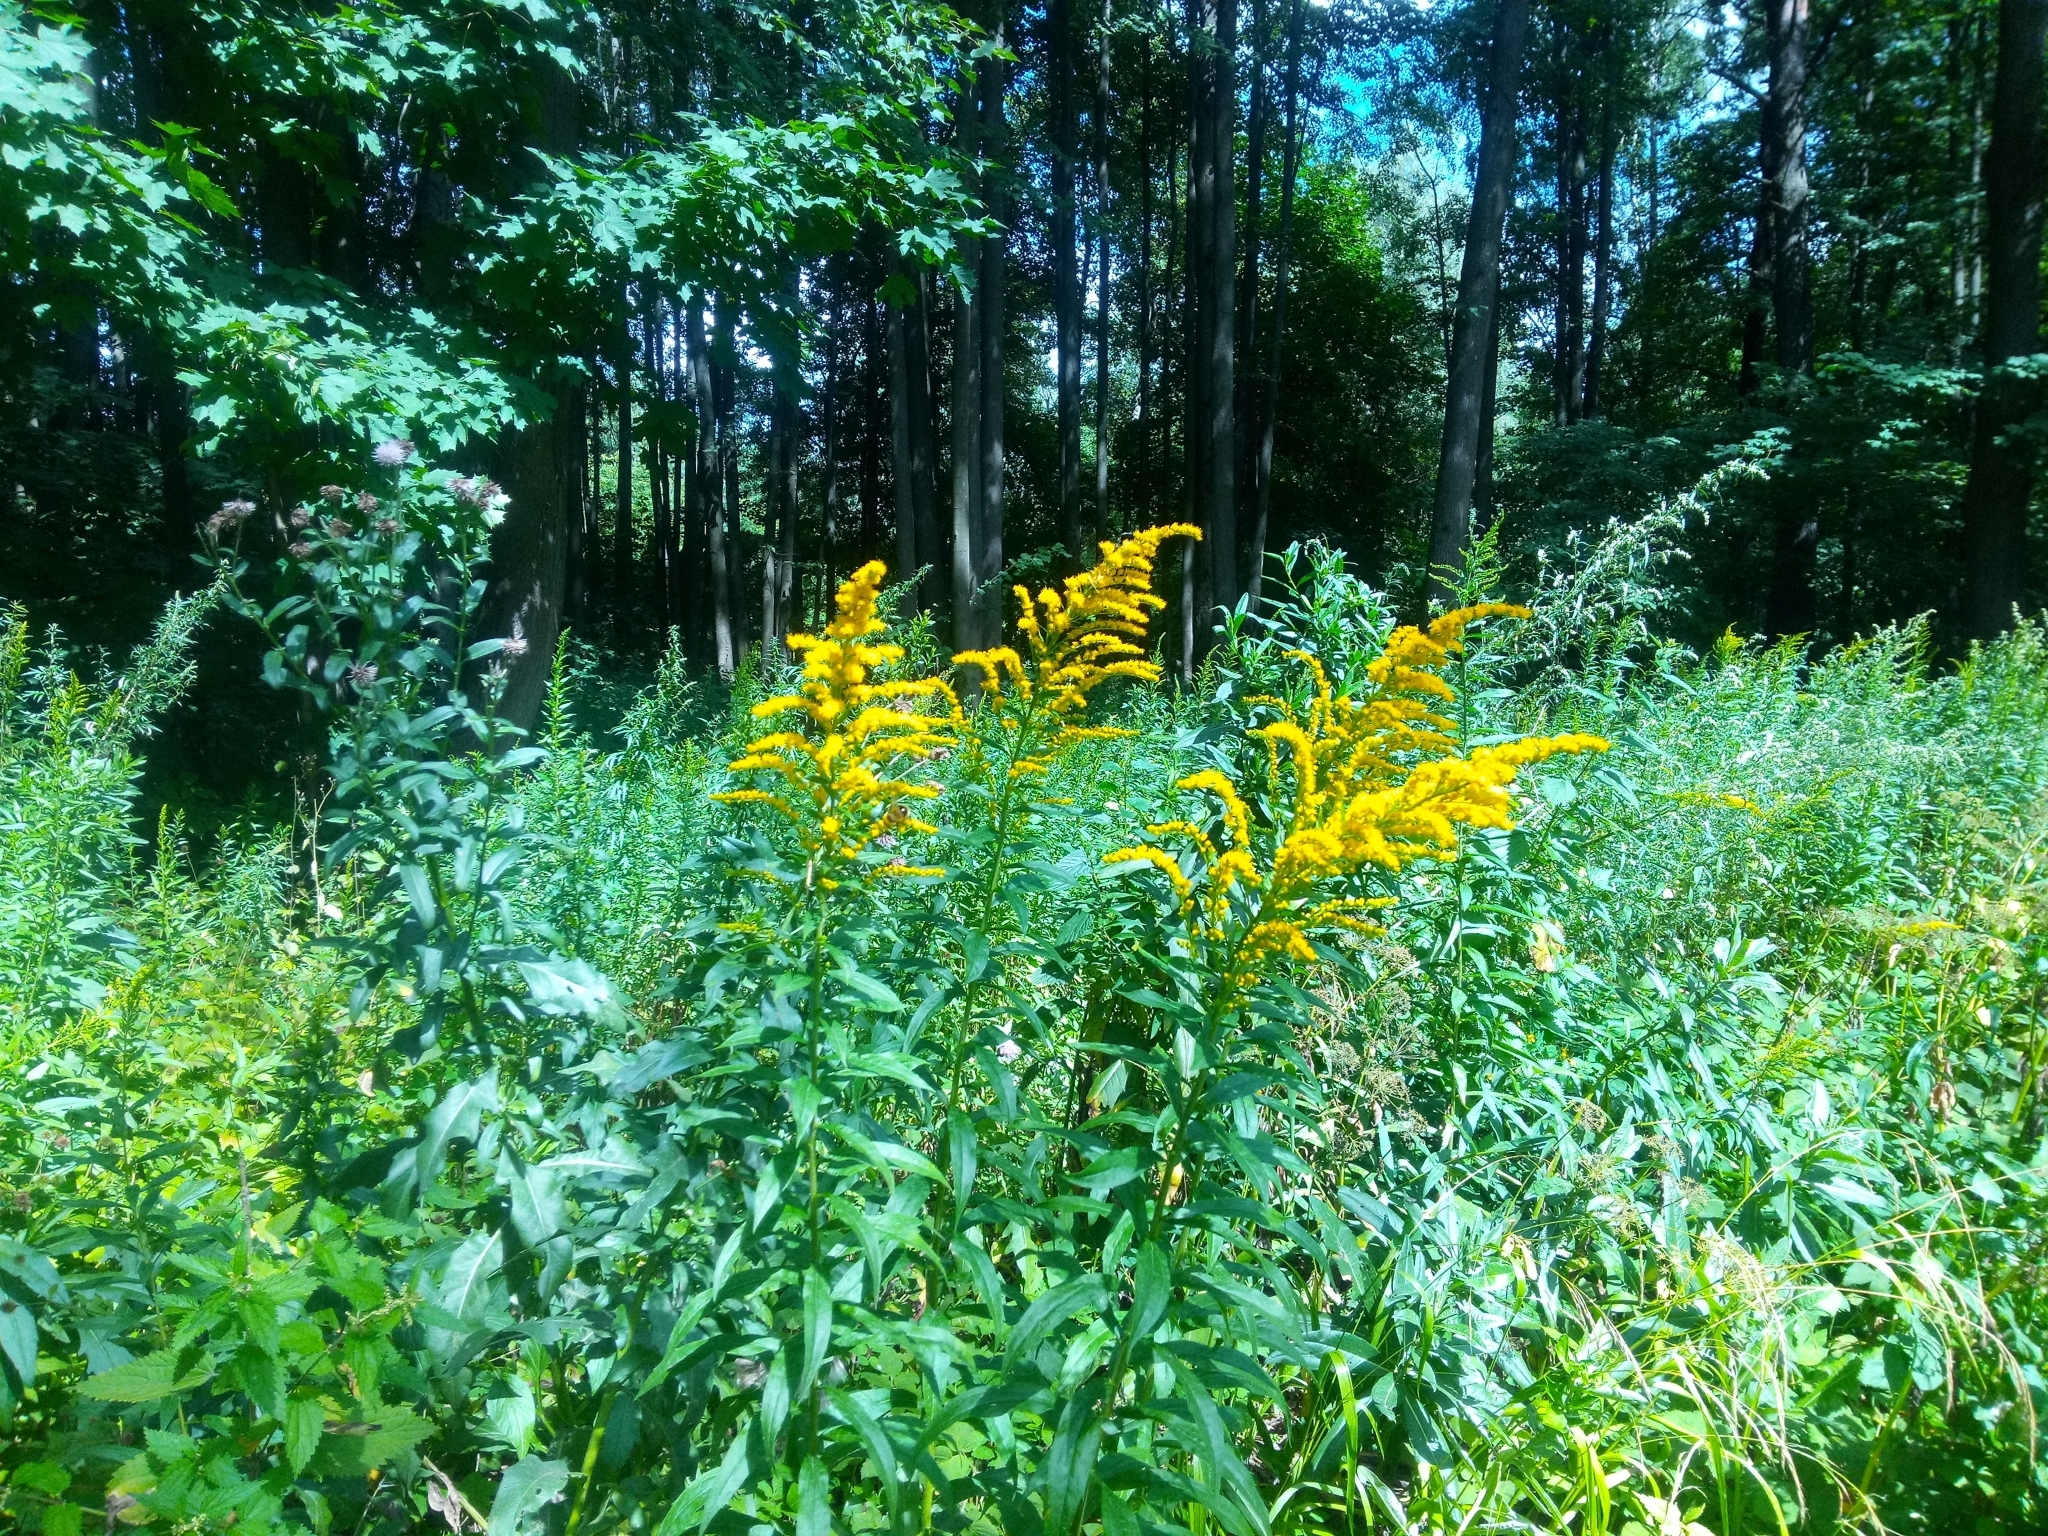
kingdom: Plantae
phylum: Tracheophyta
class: Magnoliopsida
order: Asterales
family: Asteraceae
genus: Solidago
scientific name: Solidago canadensis
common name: Canada goldenrod
